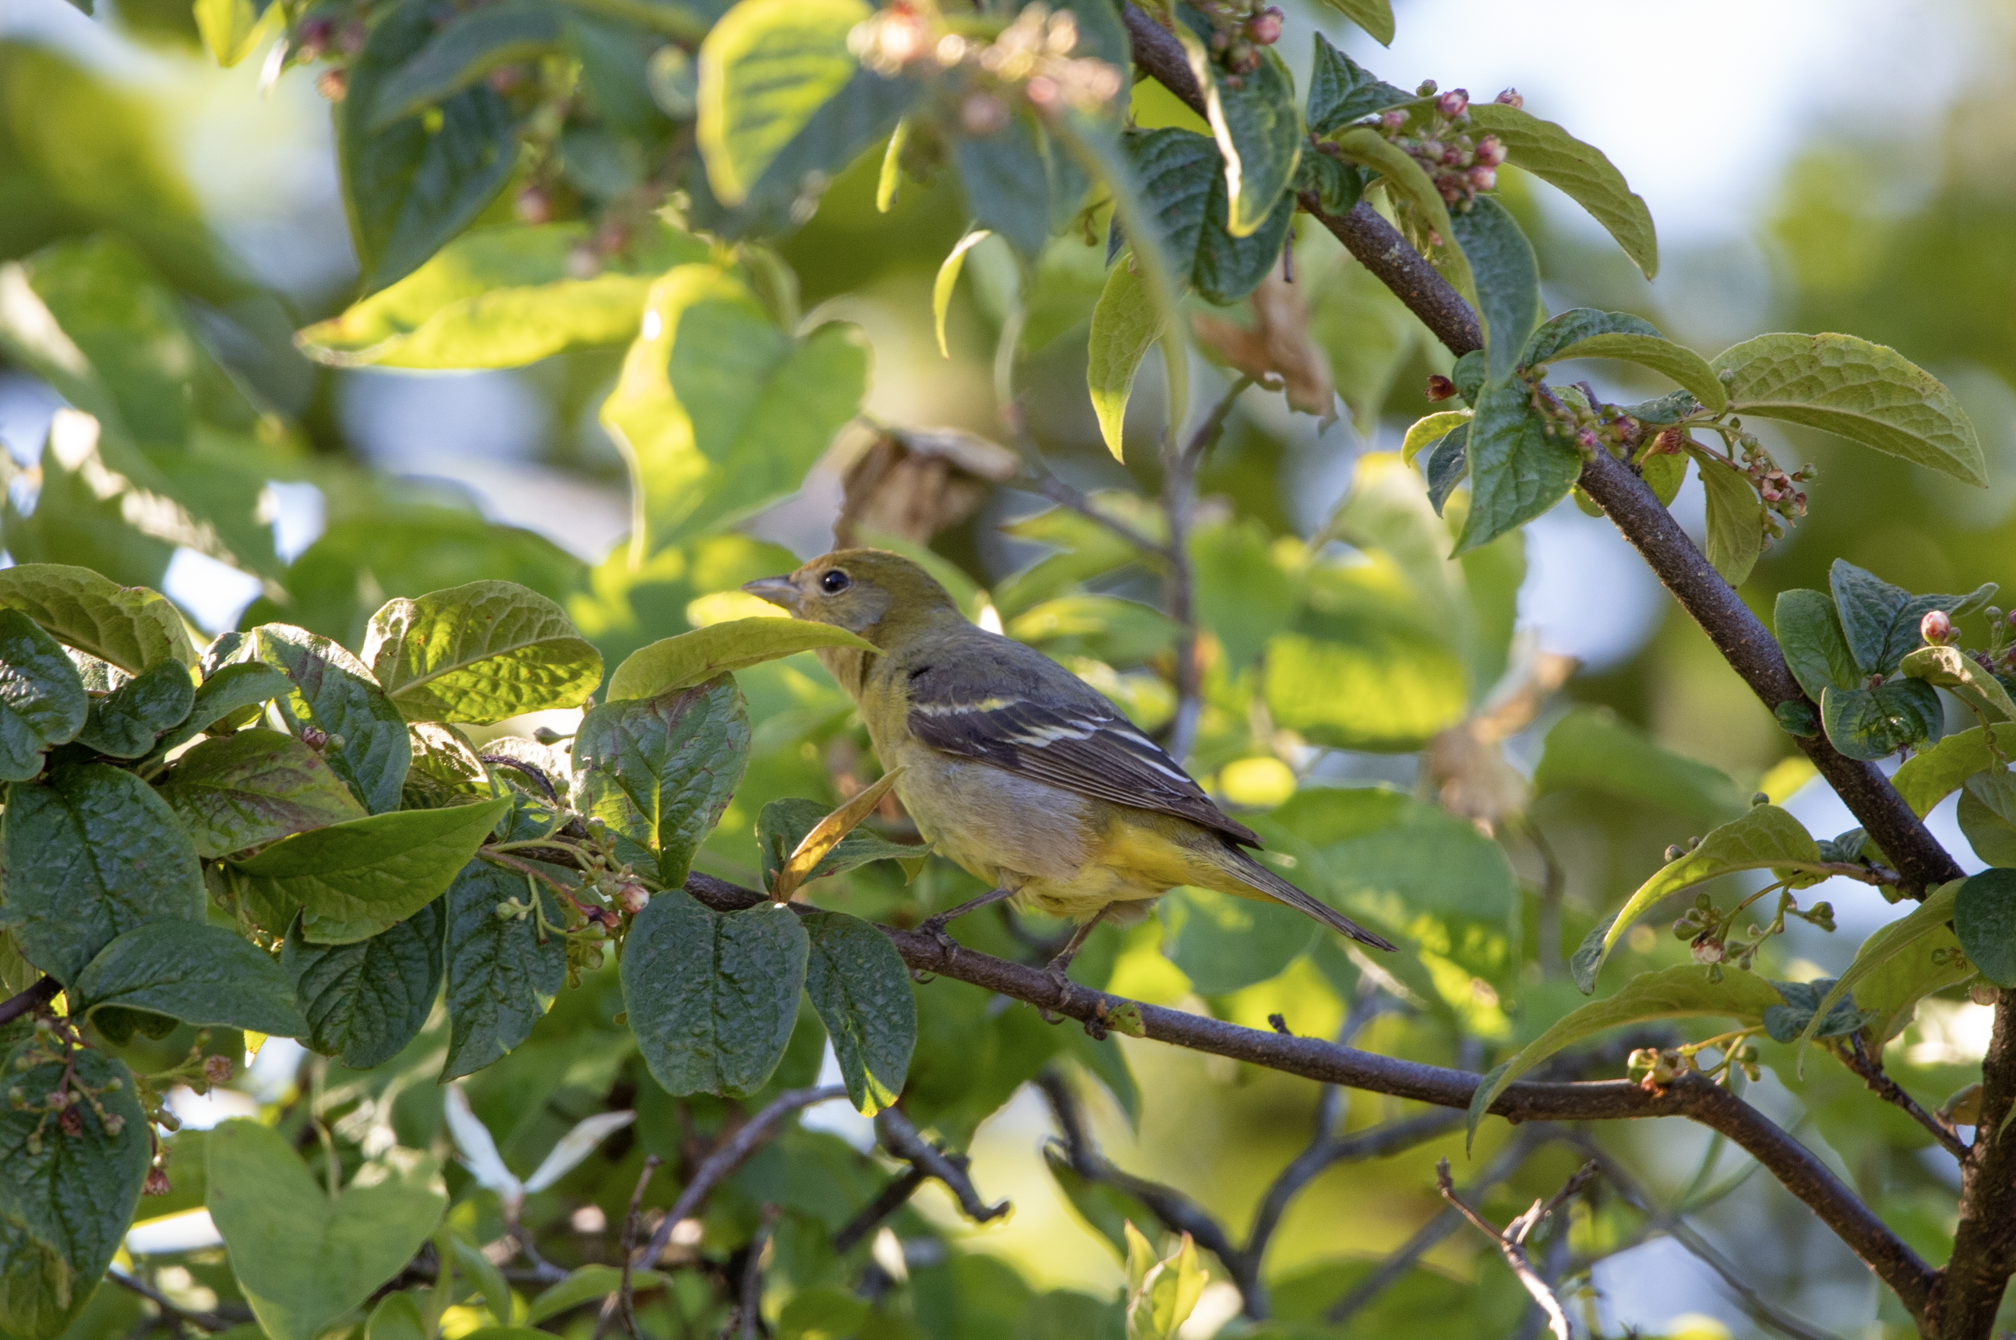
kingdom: Animalia
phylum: Chordata
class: Aves
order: Passeriformes
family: Cardinalidae
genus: Piranga
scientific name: Piranga ludoviciana
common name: Western tanager
